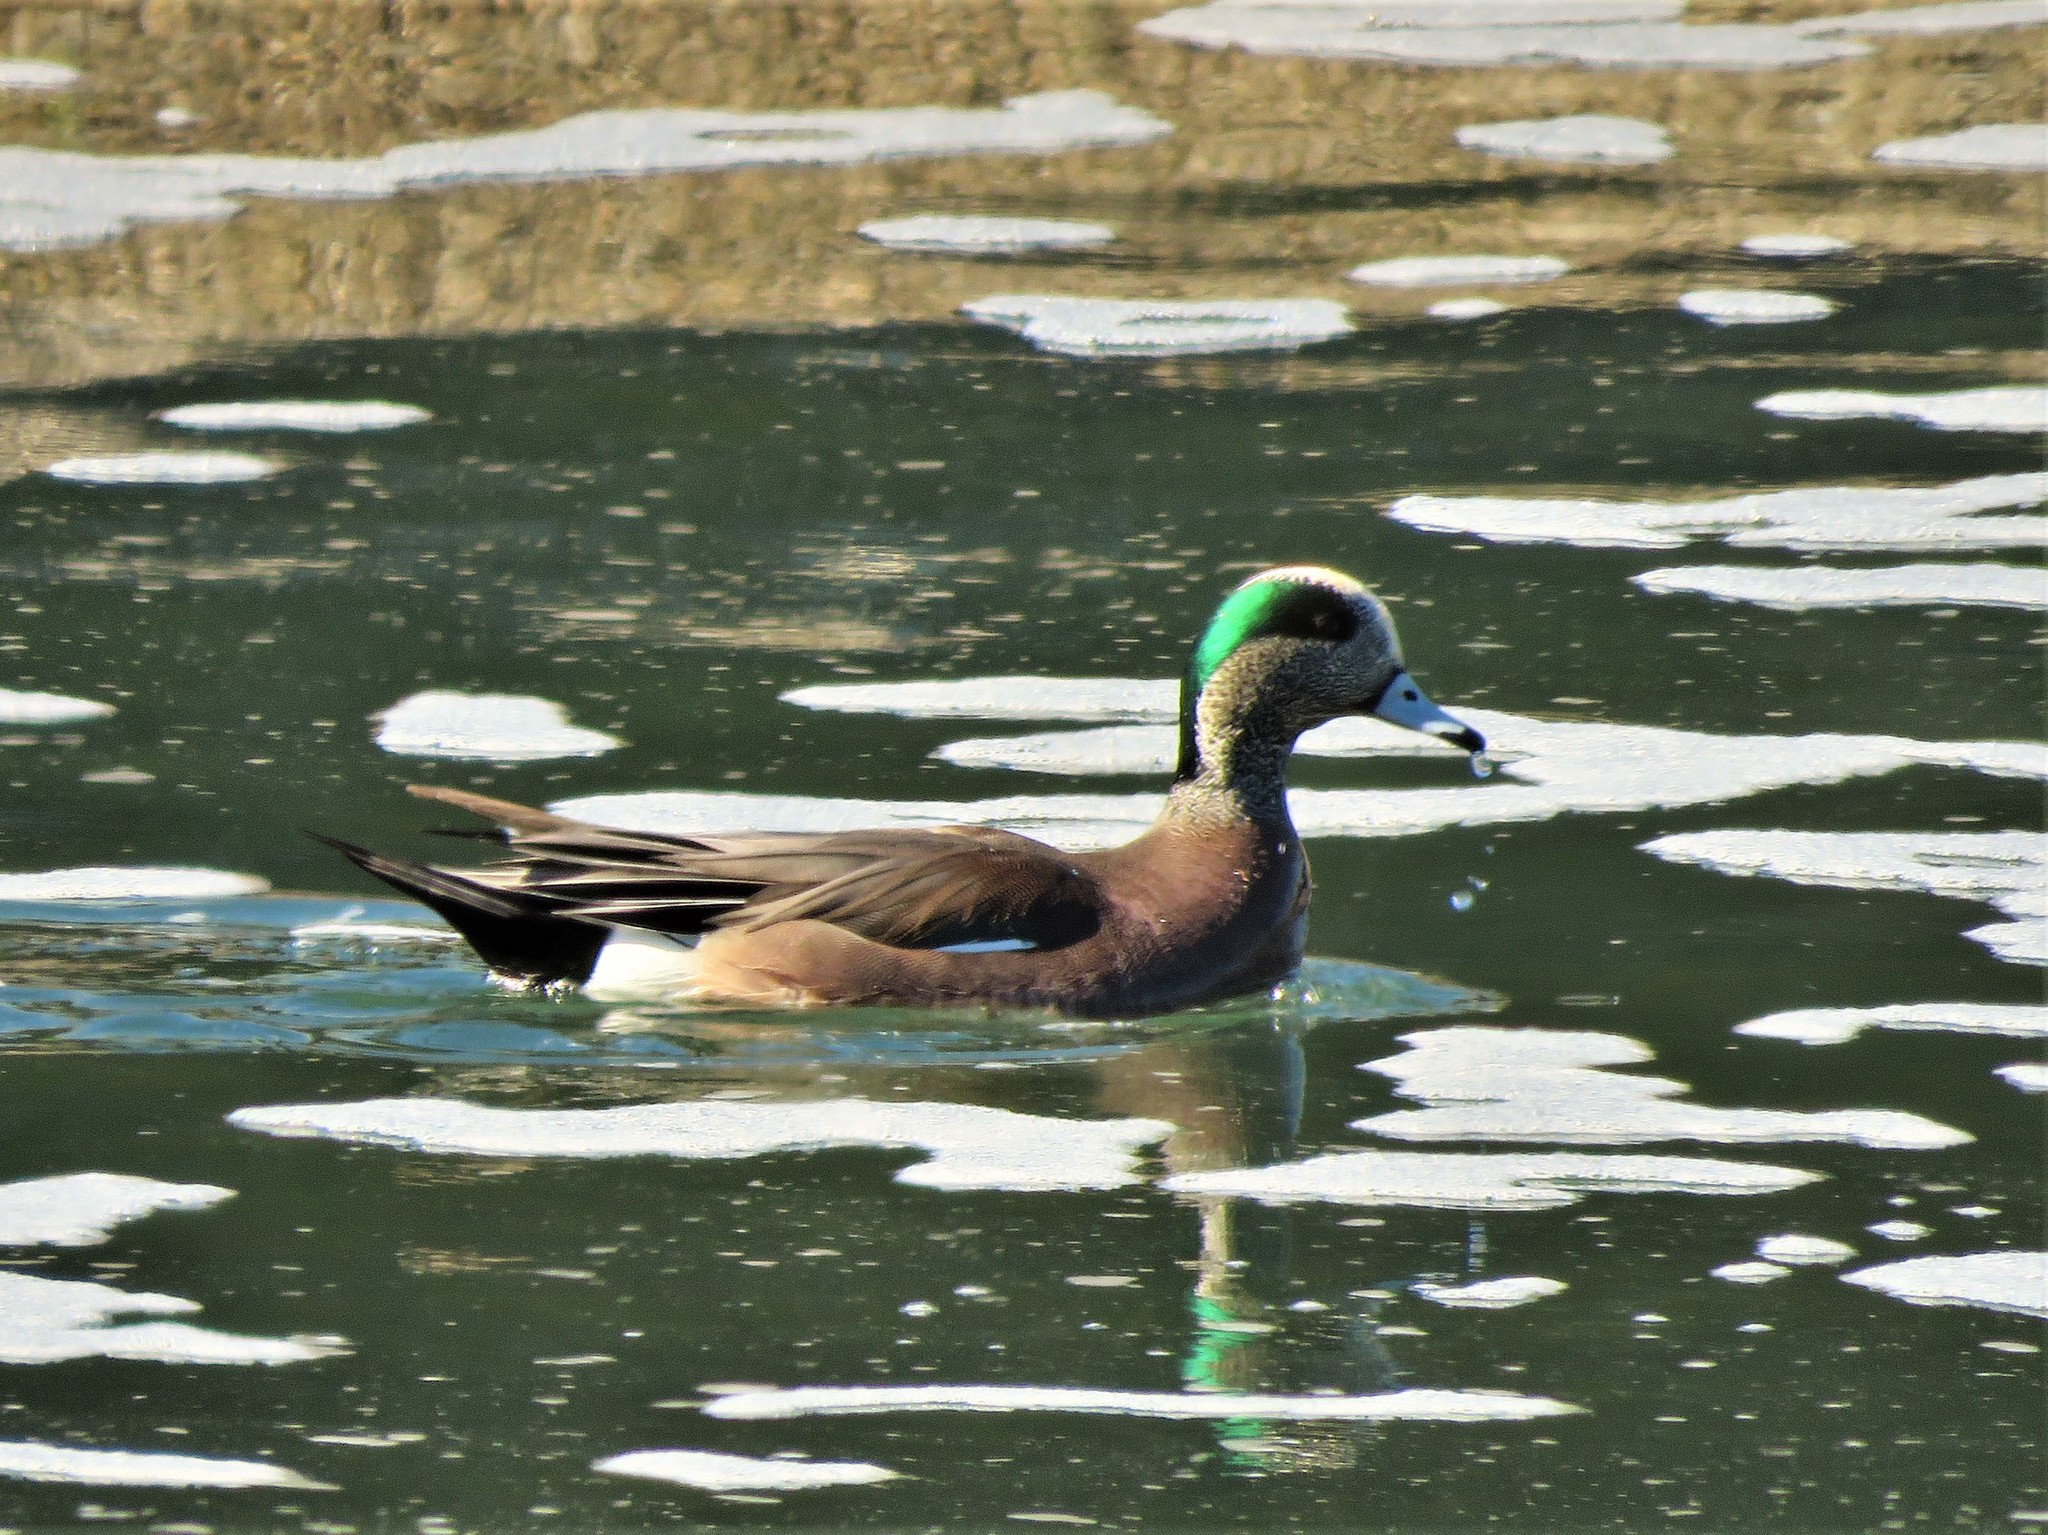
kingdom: Animalia
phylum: Chordata
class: Aves
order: Anseriformes
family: Anatidae
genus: Mareca
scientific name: Mareca americana
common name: American wigeon
